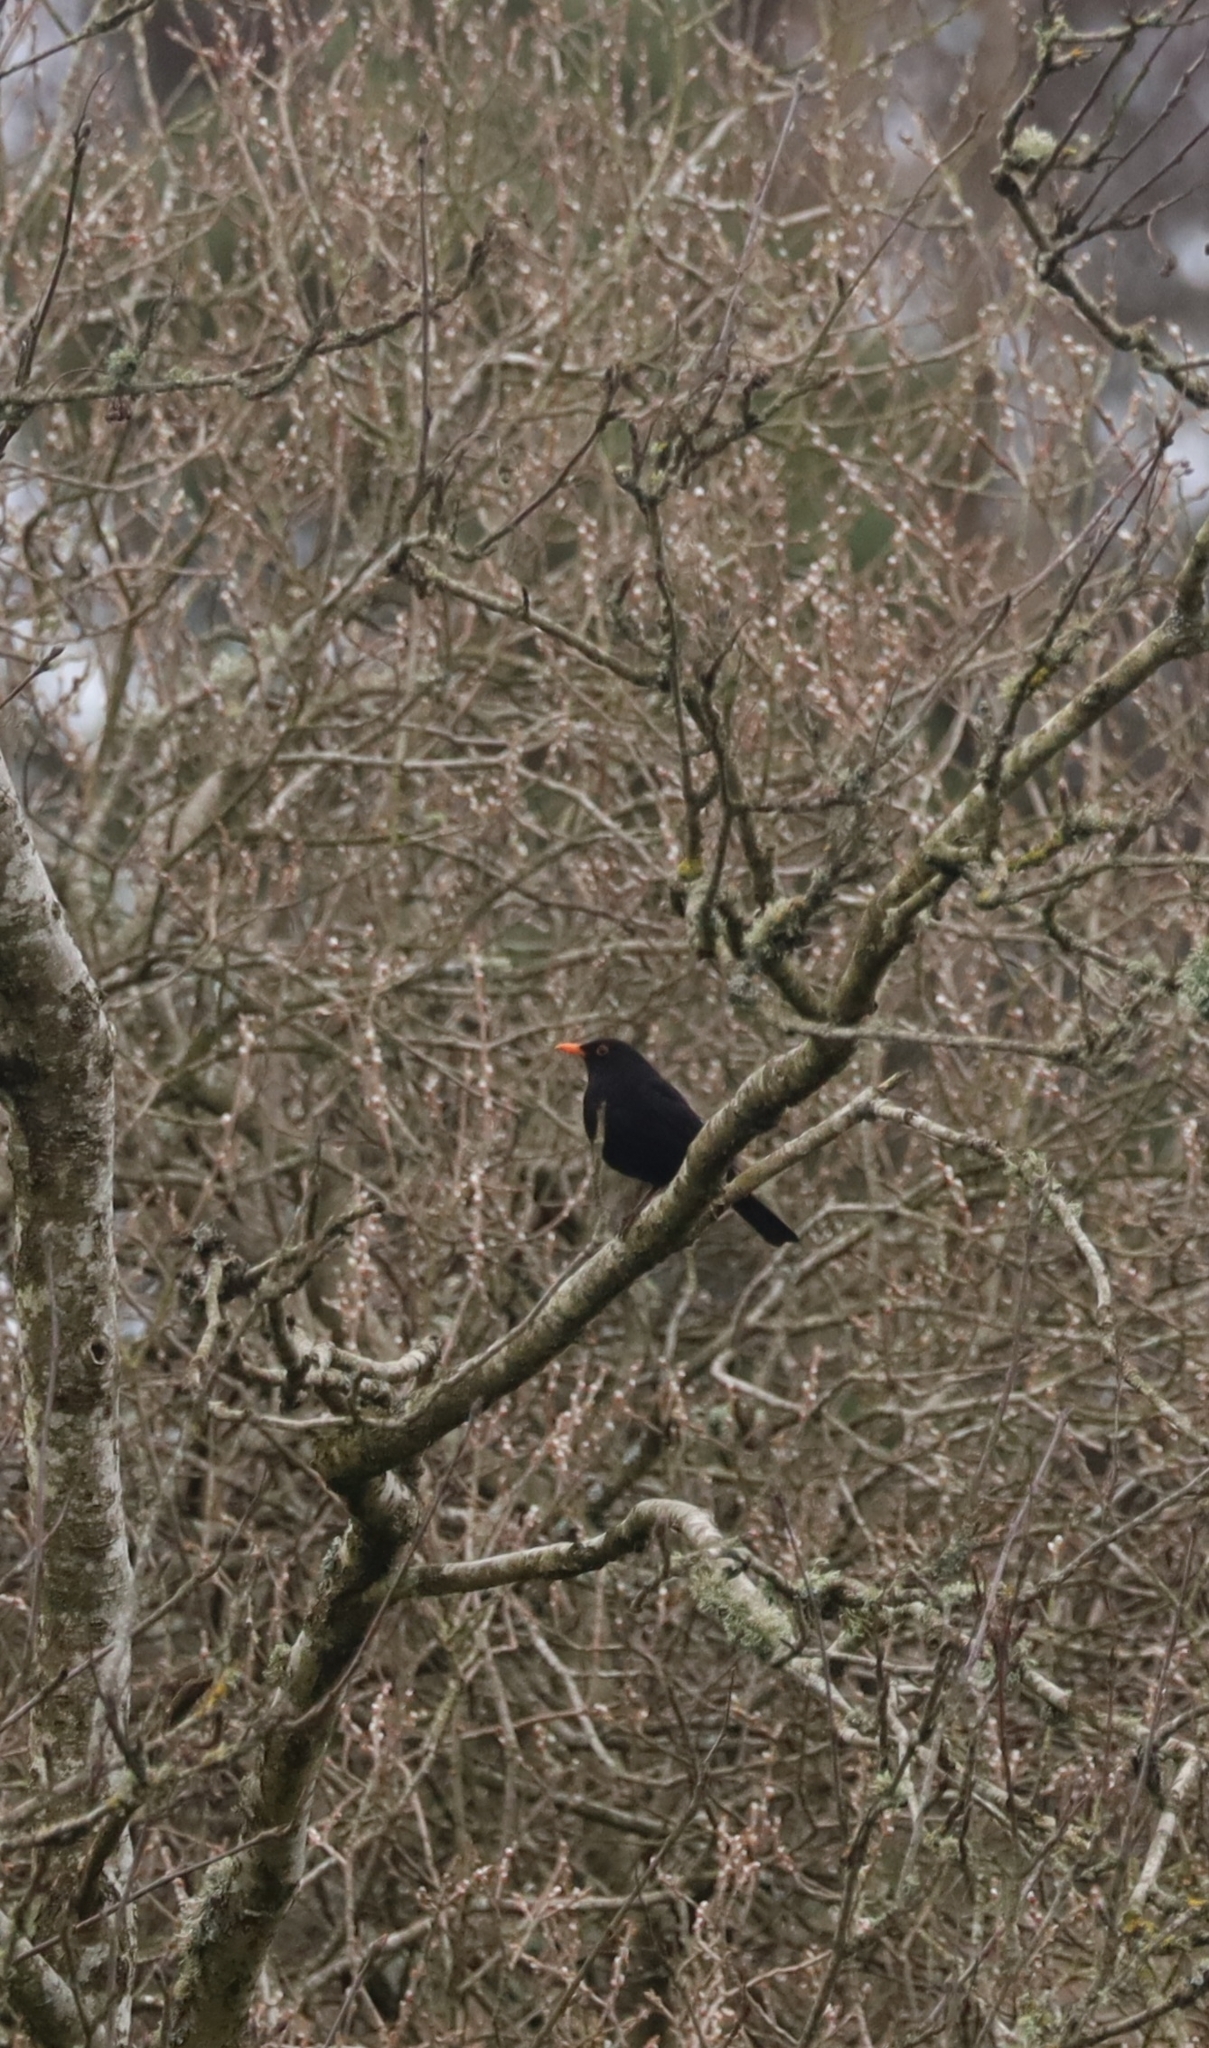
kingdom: Animalia
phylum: Chordata
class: Aves
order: Passeriformes
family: Turdidae
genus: Turdus
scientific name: Turdus merula
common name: Common blackbird
